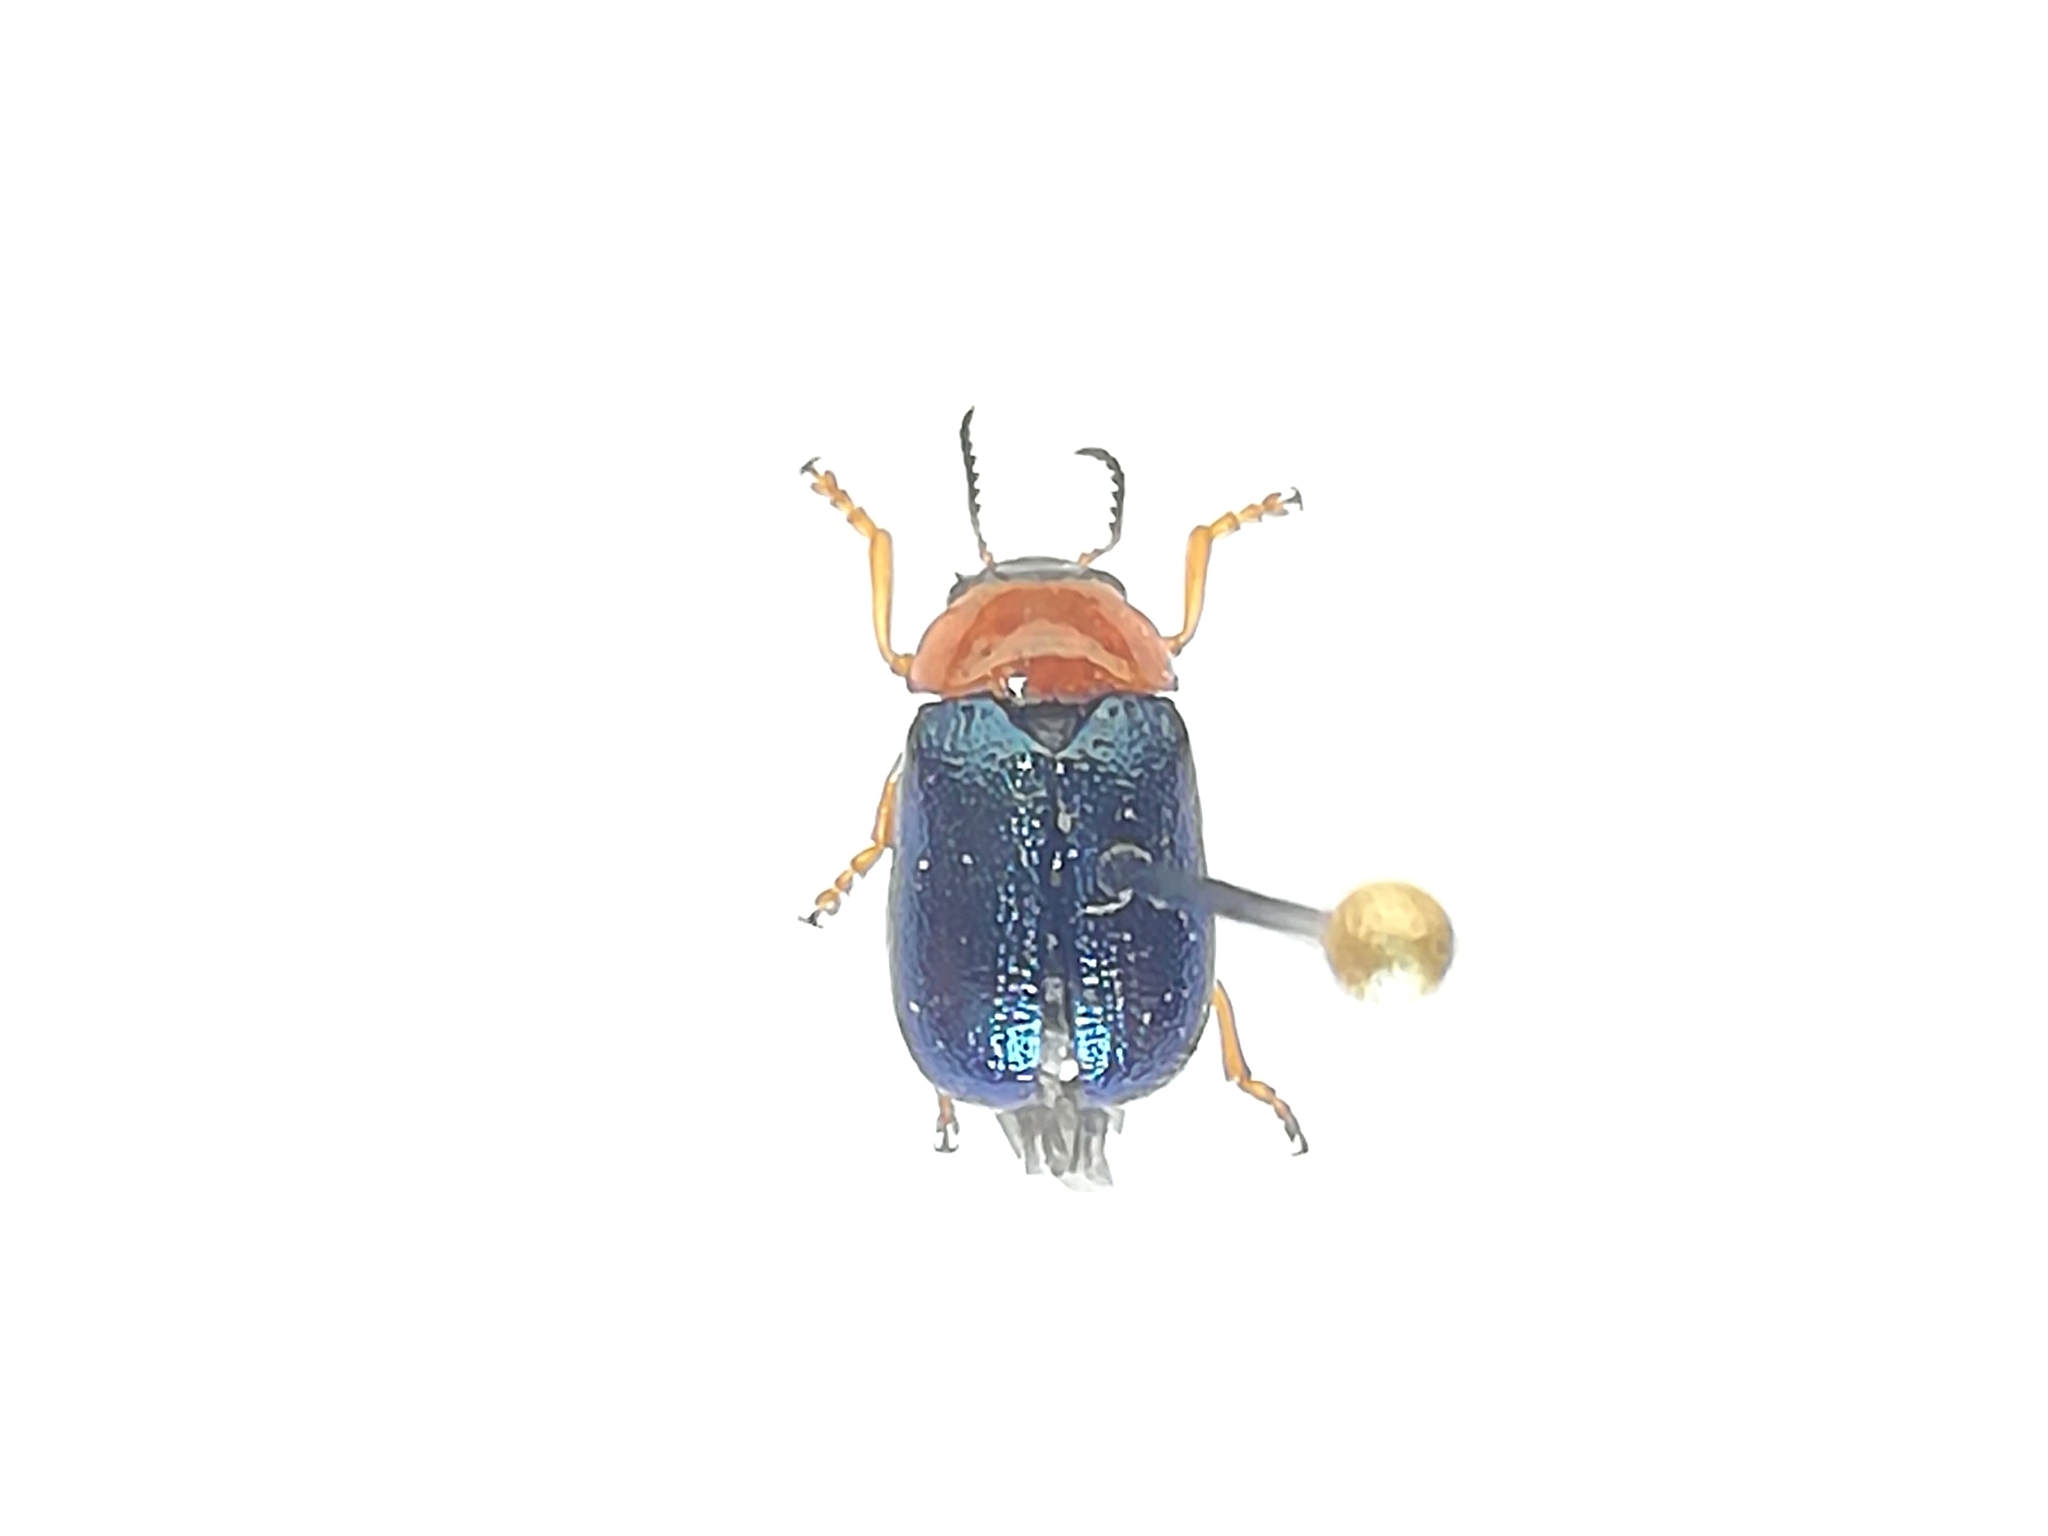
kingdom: Animalia
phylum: Arthropoda
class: Insecta
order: Coleoptera
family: Chrysomelidae
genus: Gastrophysa
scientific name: Gastrophysa polygoni
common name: Knotweed leaf beetle
